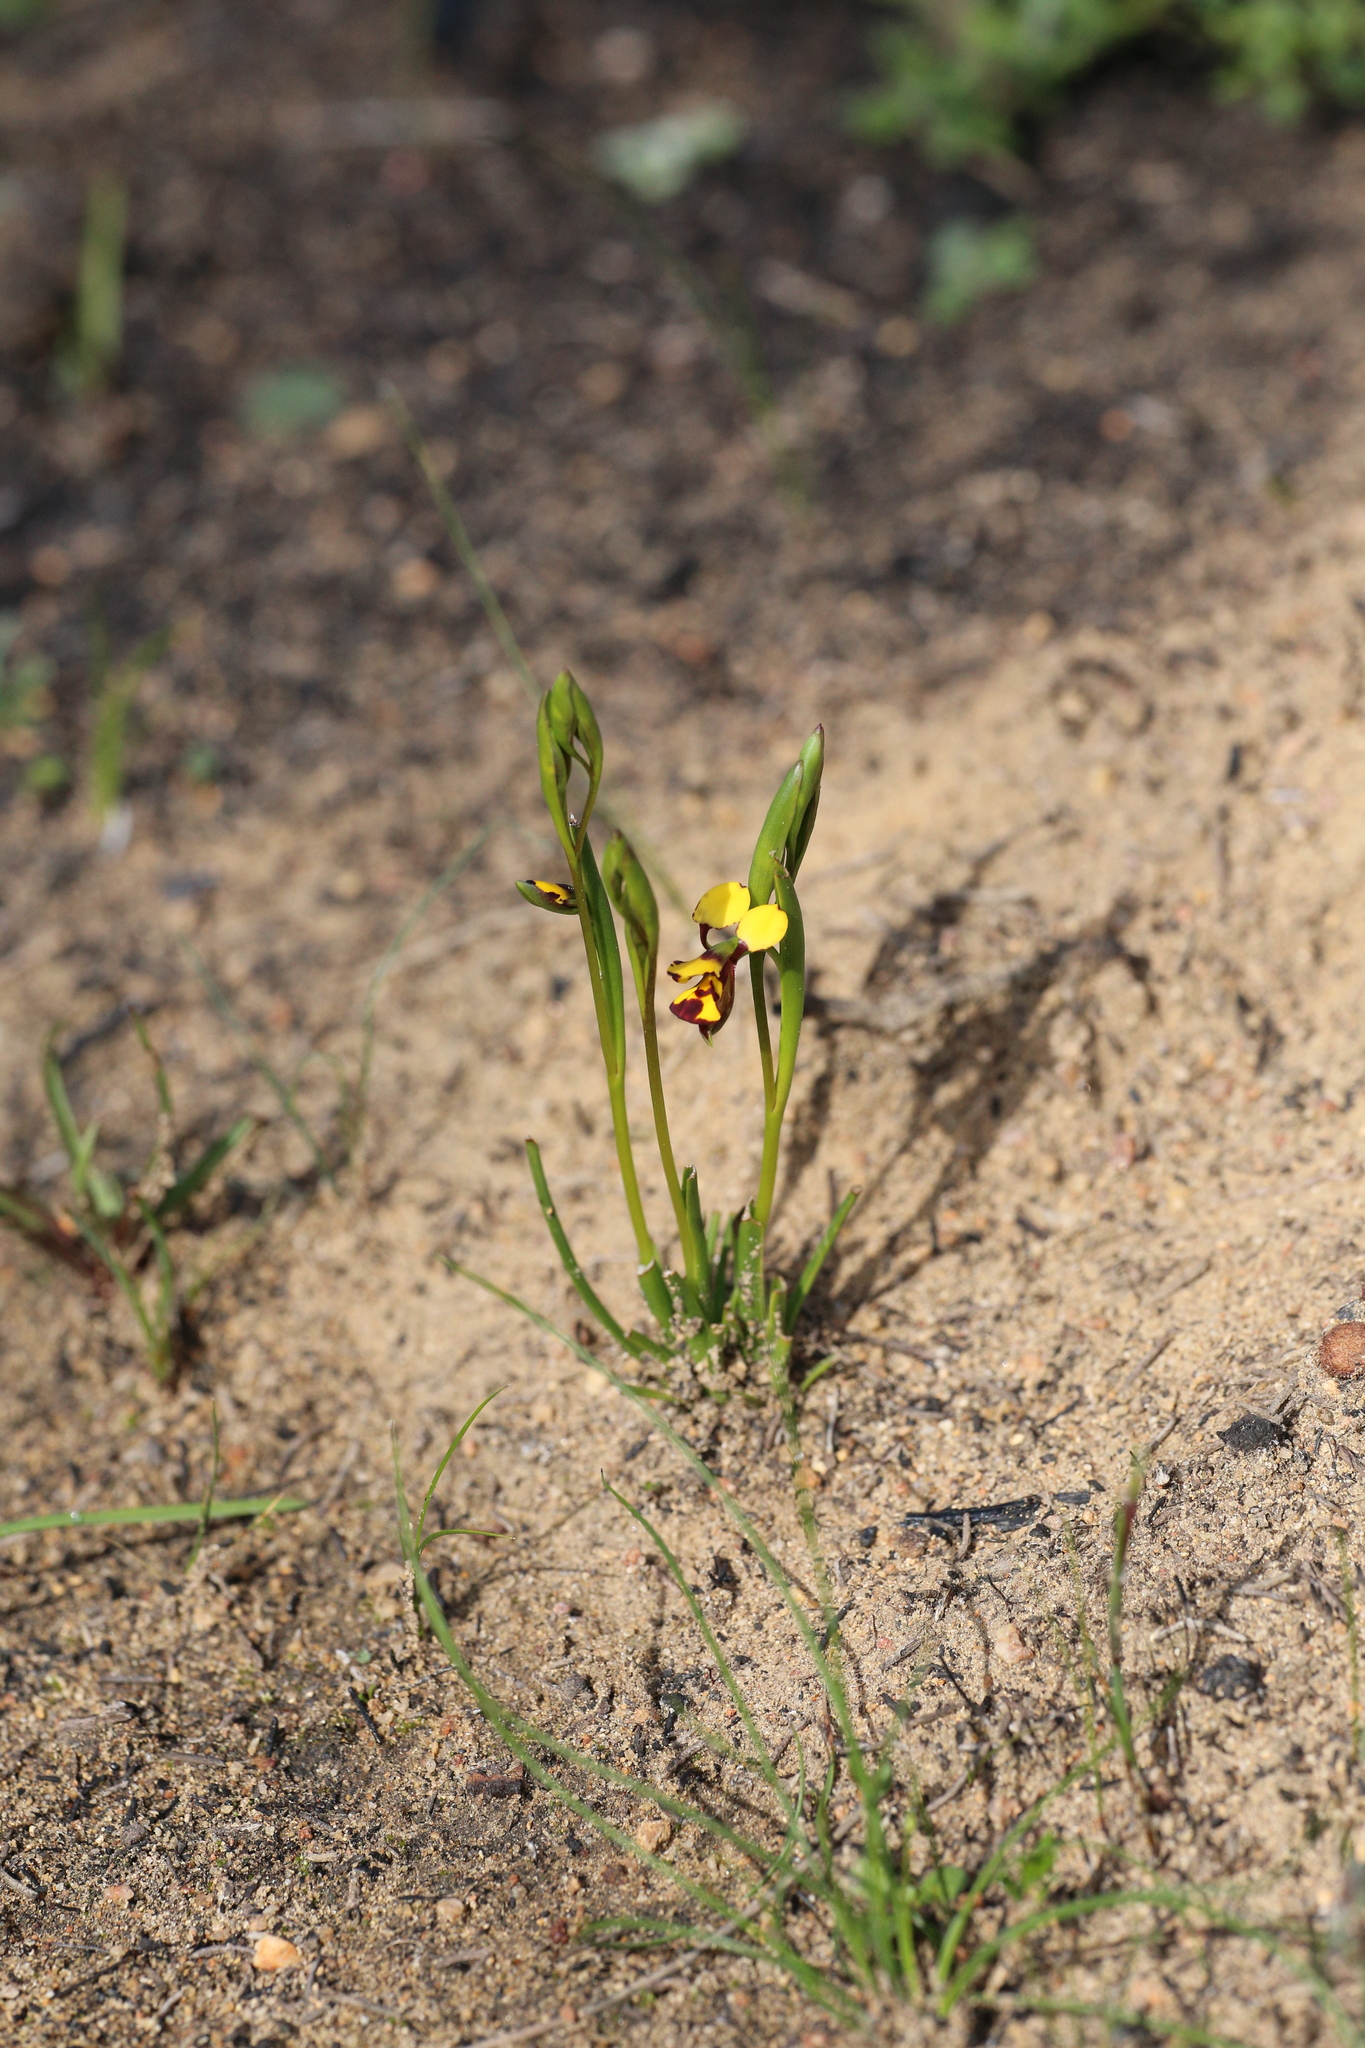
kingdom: Plantae
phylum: Tracheophyta
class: Liliopsida
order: Asparagales
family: Orchidaceae
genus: Diuris
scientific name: Diuris laxiflora
